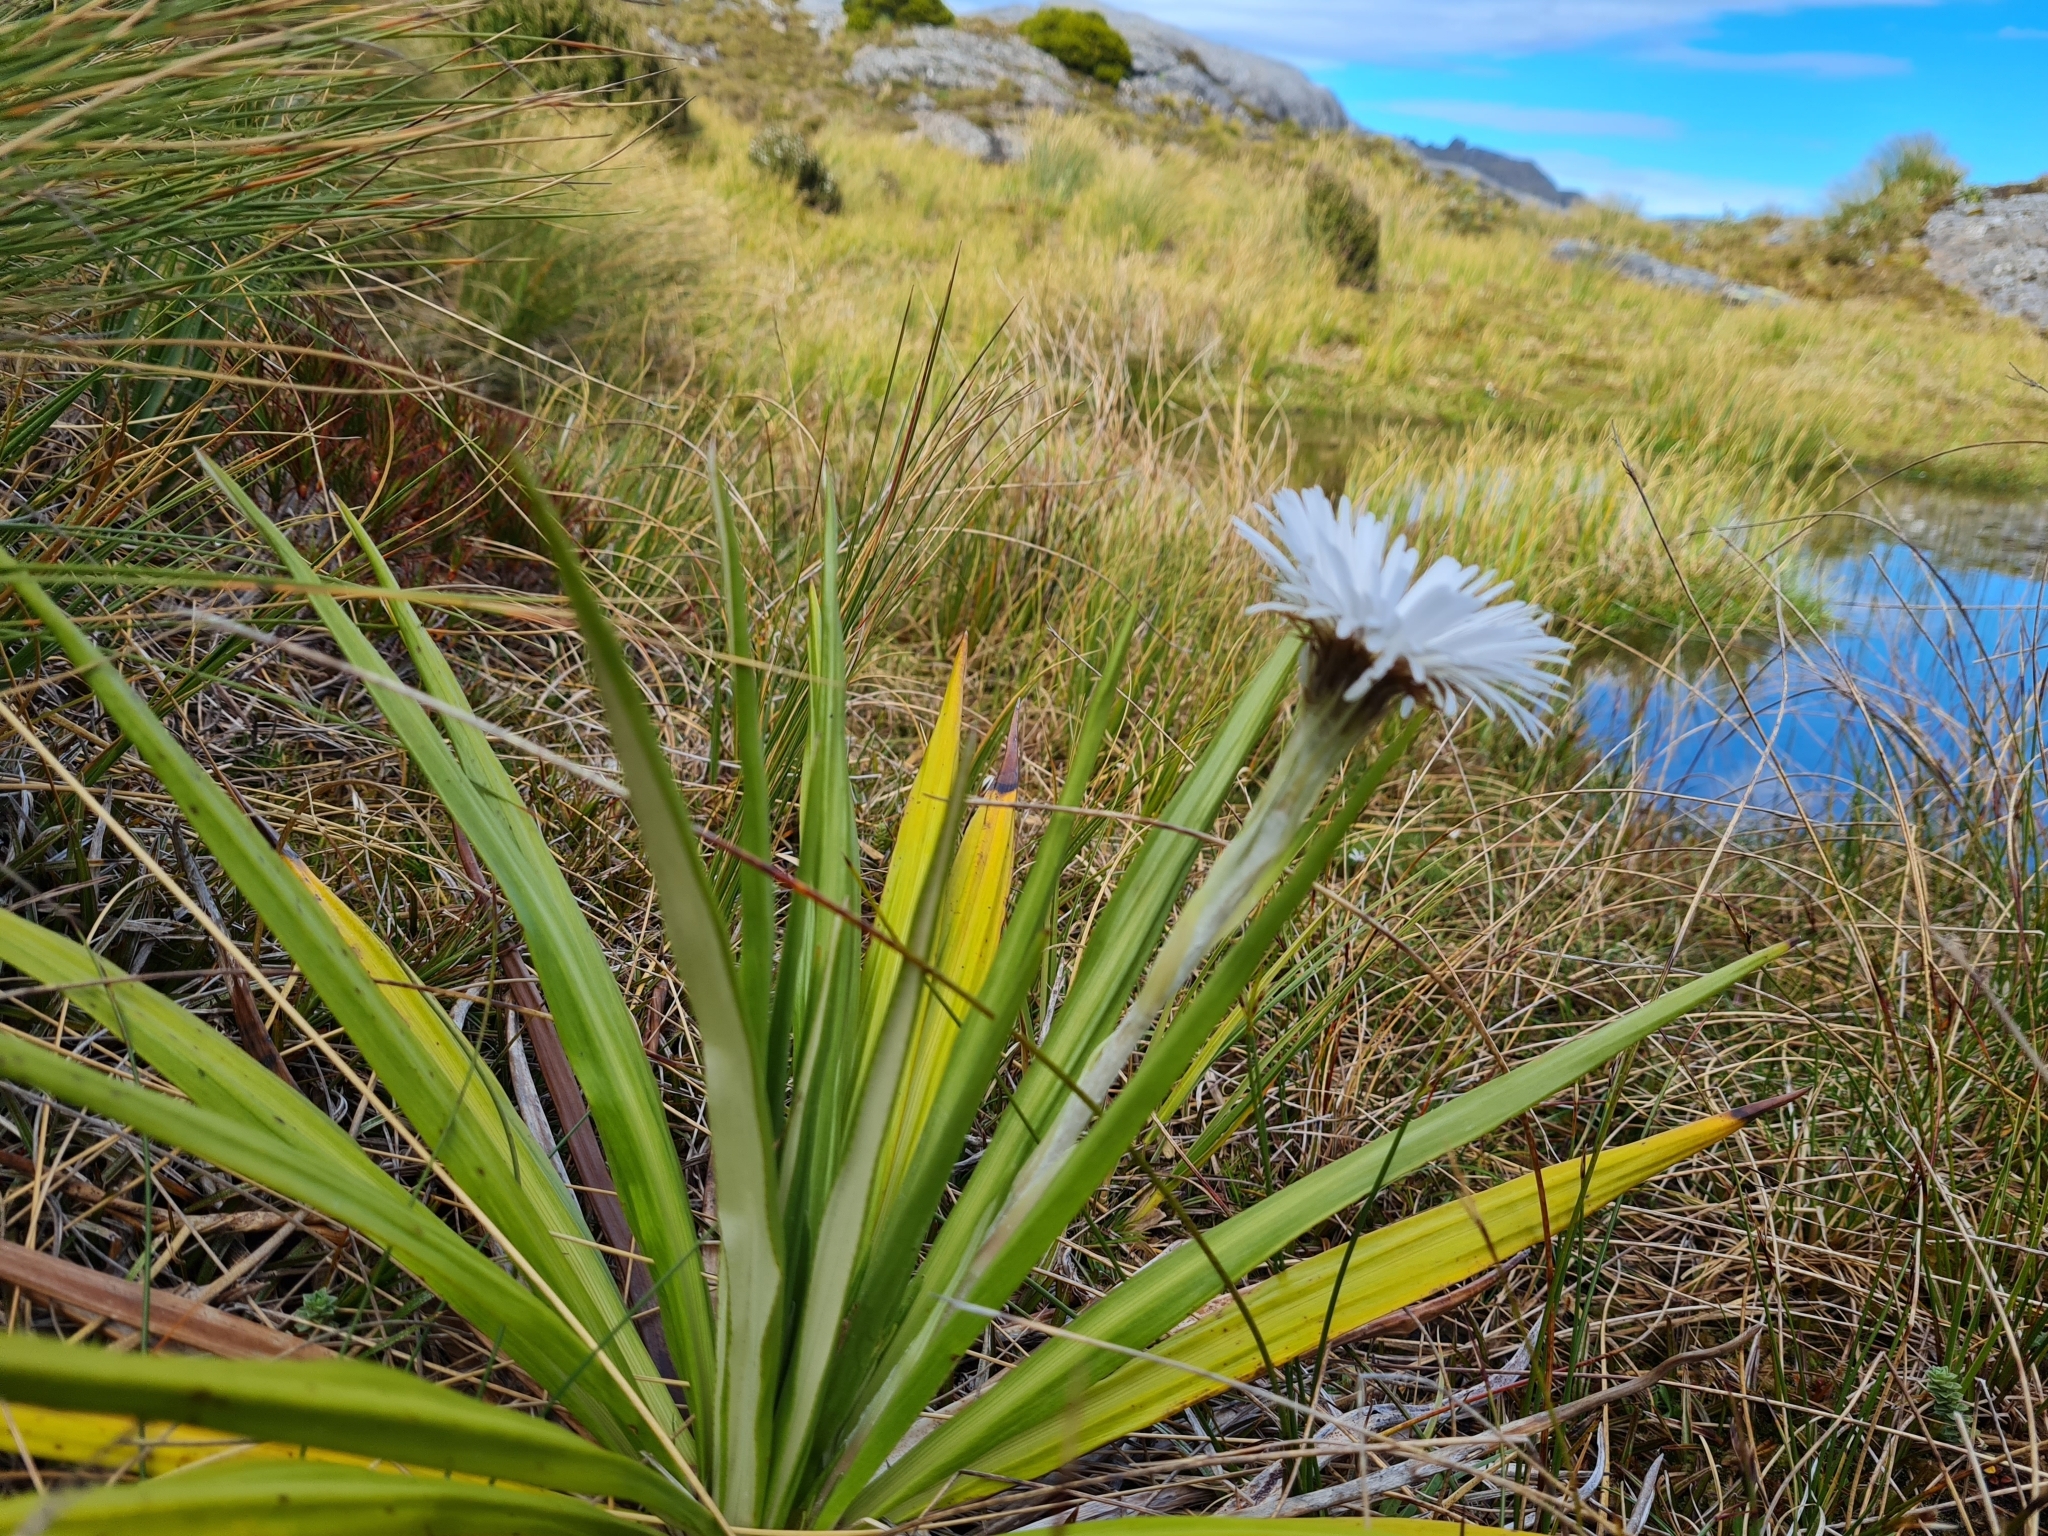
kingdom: Plantae
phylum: Tracheophyta
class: Magnoliopsida
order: Asterales
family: Asteraceae
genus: Celmisia
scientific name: Celmisia petriei
